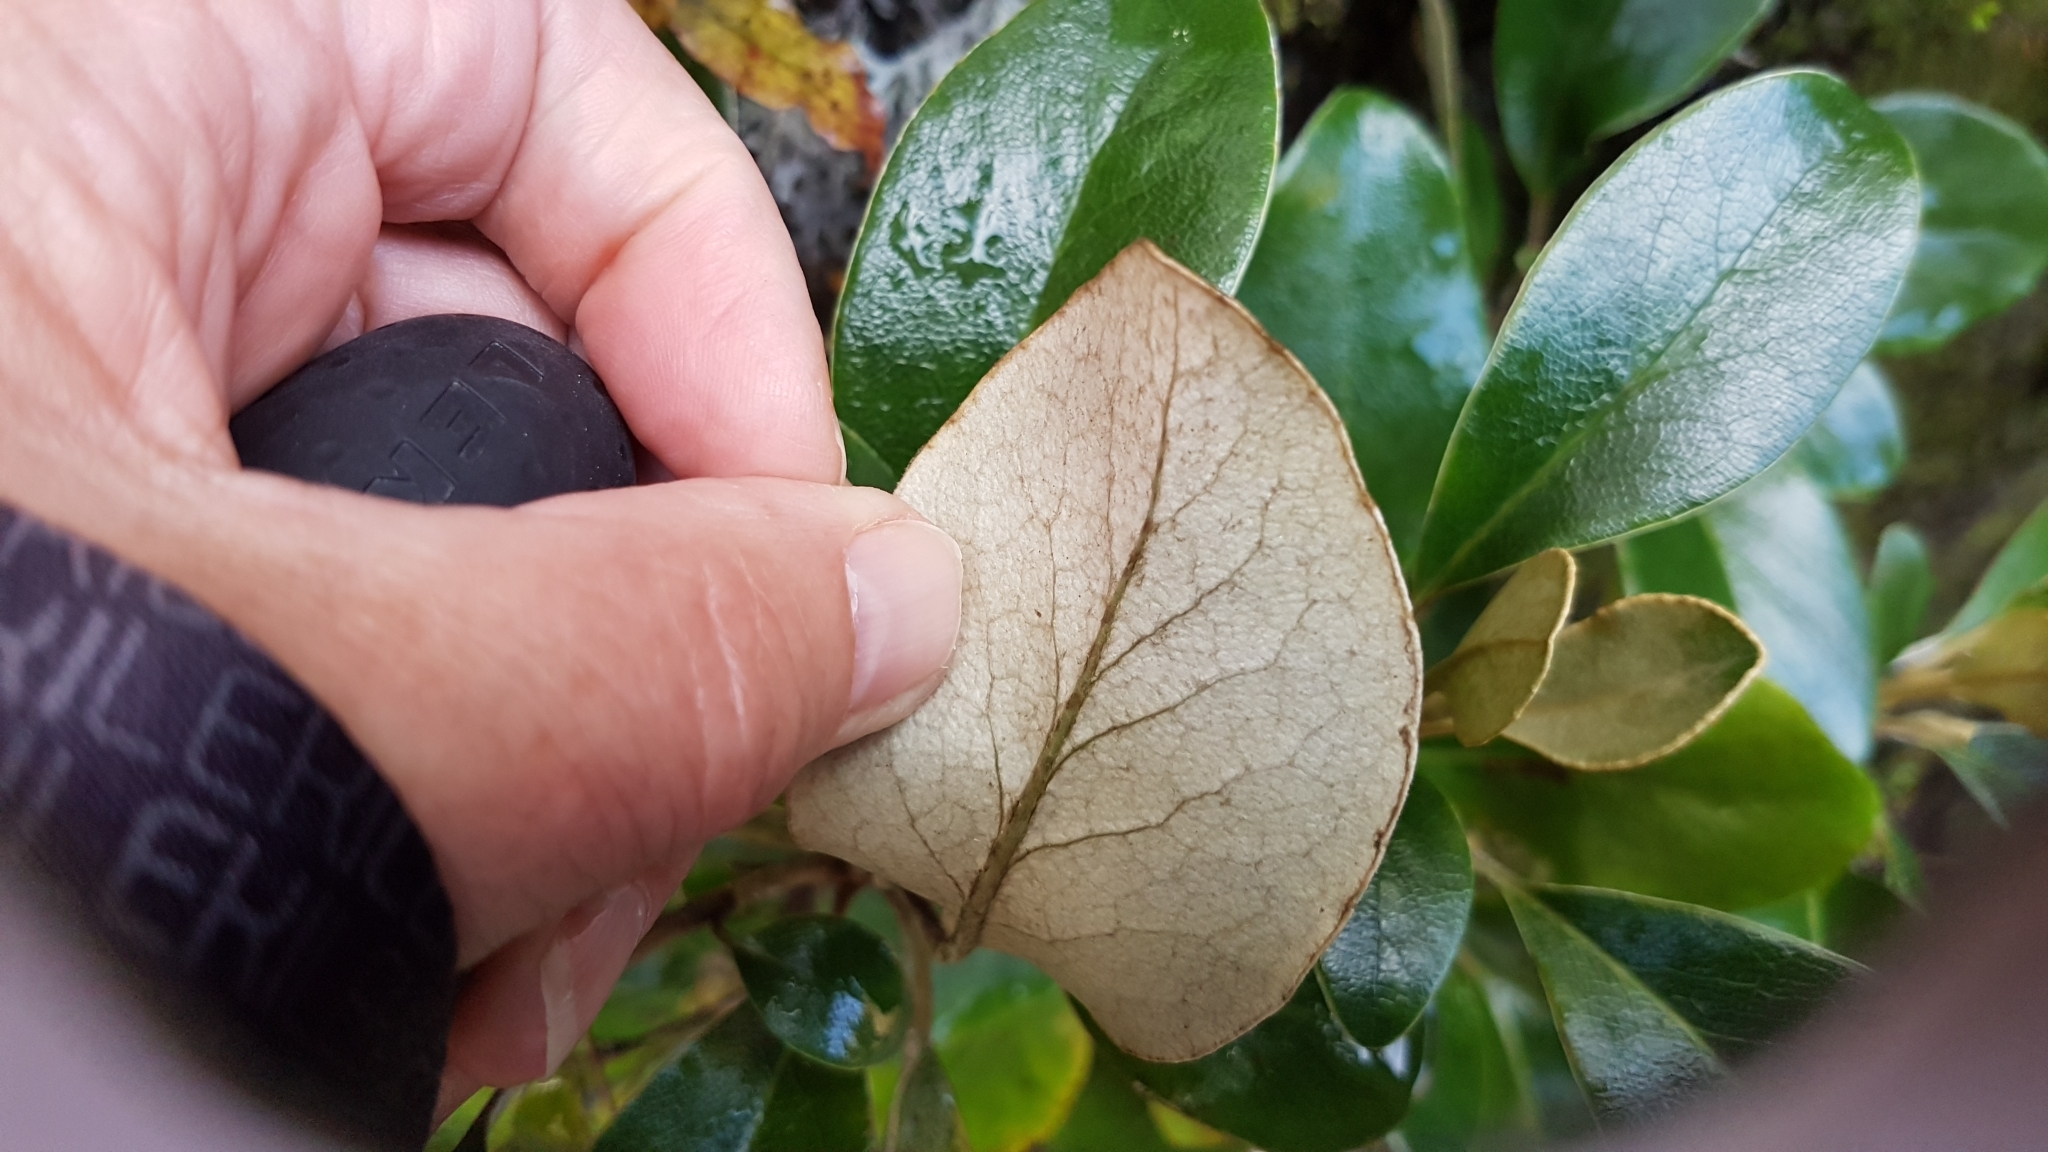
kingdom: Plantae
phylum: Tracheophyta
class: Magnoliopsida
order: Asterales
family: Asteraceae
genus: Brachyglottis
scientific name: Brachyglottis elaeagnifolia
